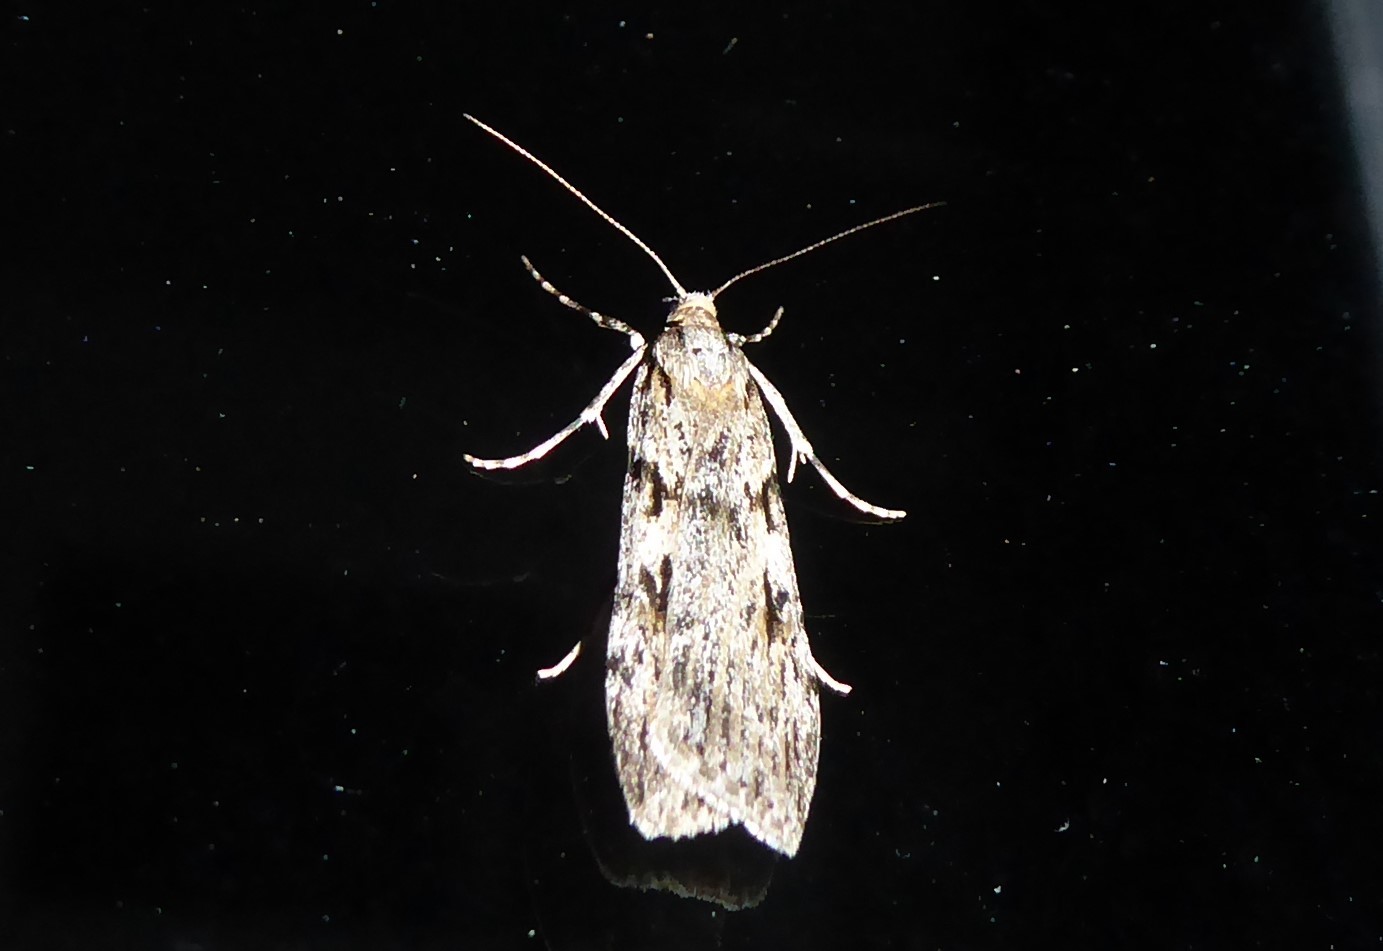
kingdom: Animalia
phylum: Arthropoda
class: Insecta
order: Lepidoptera
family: Crambidae
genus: Scoparia
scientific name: Scoparia halopis
